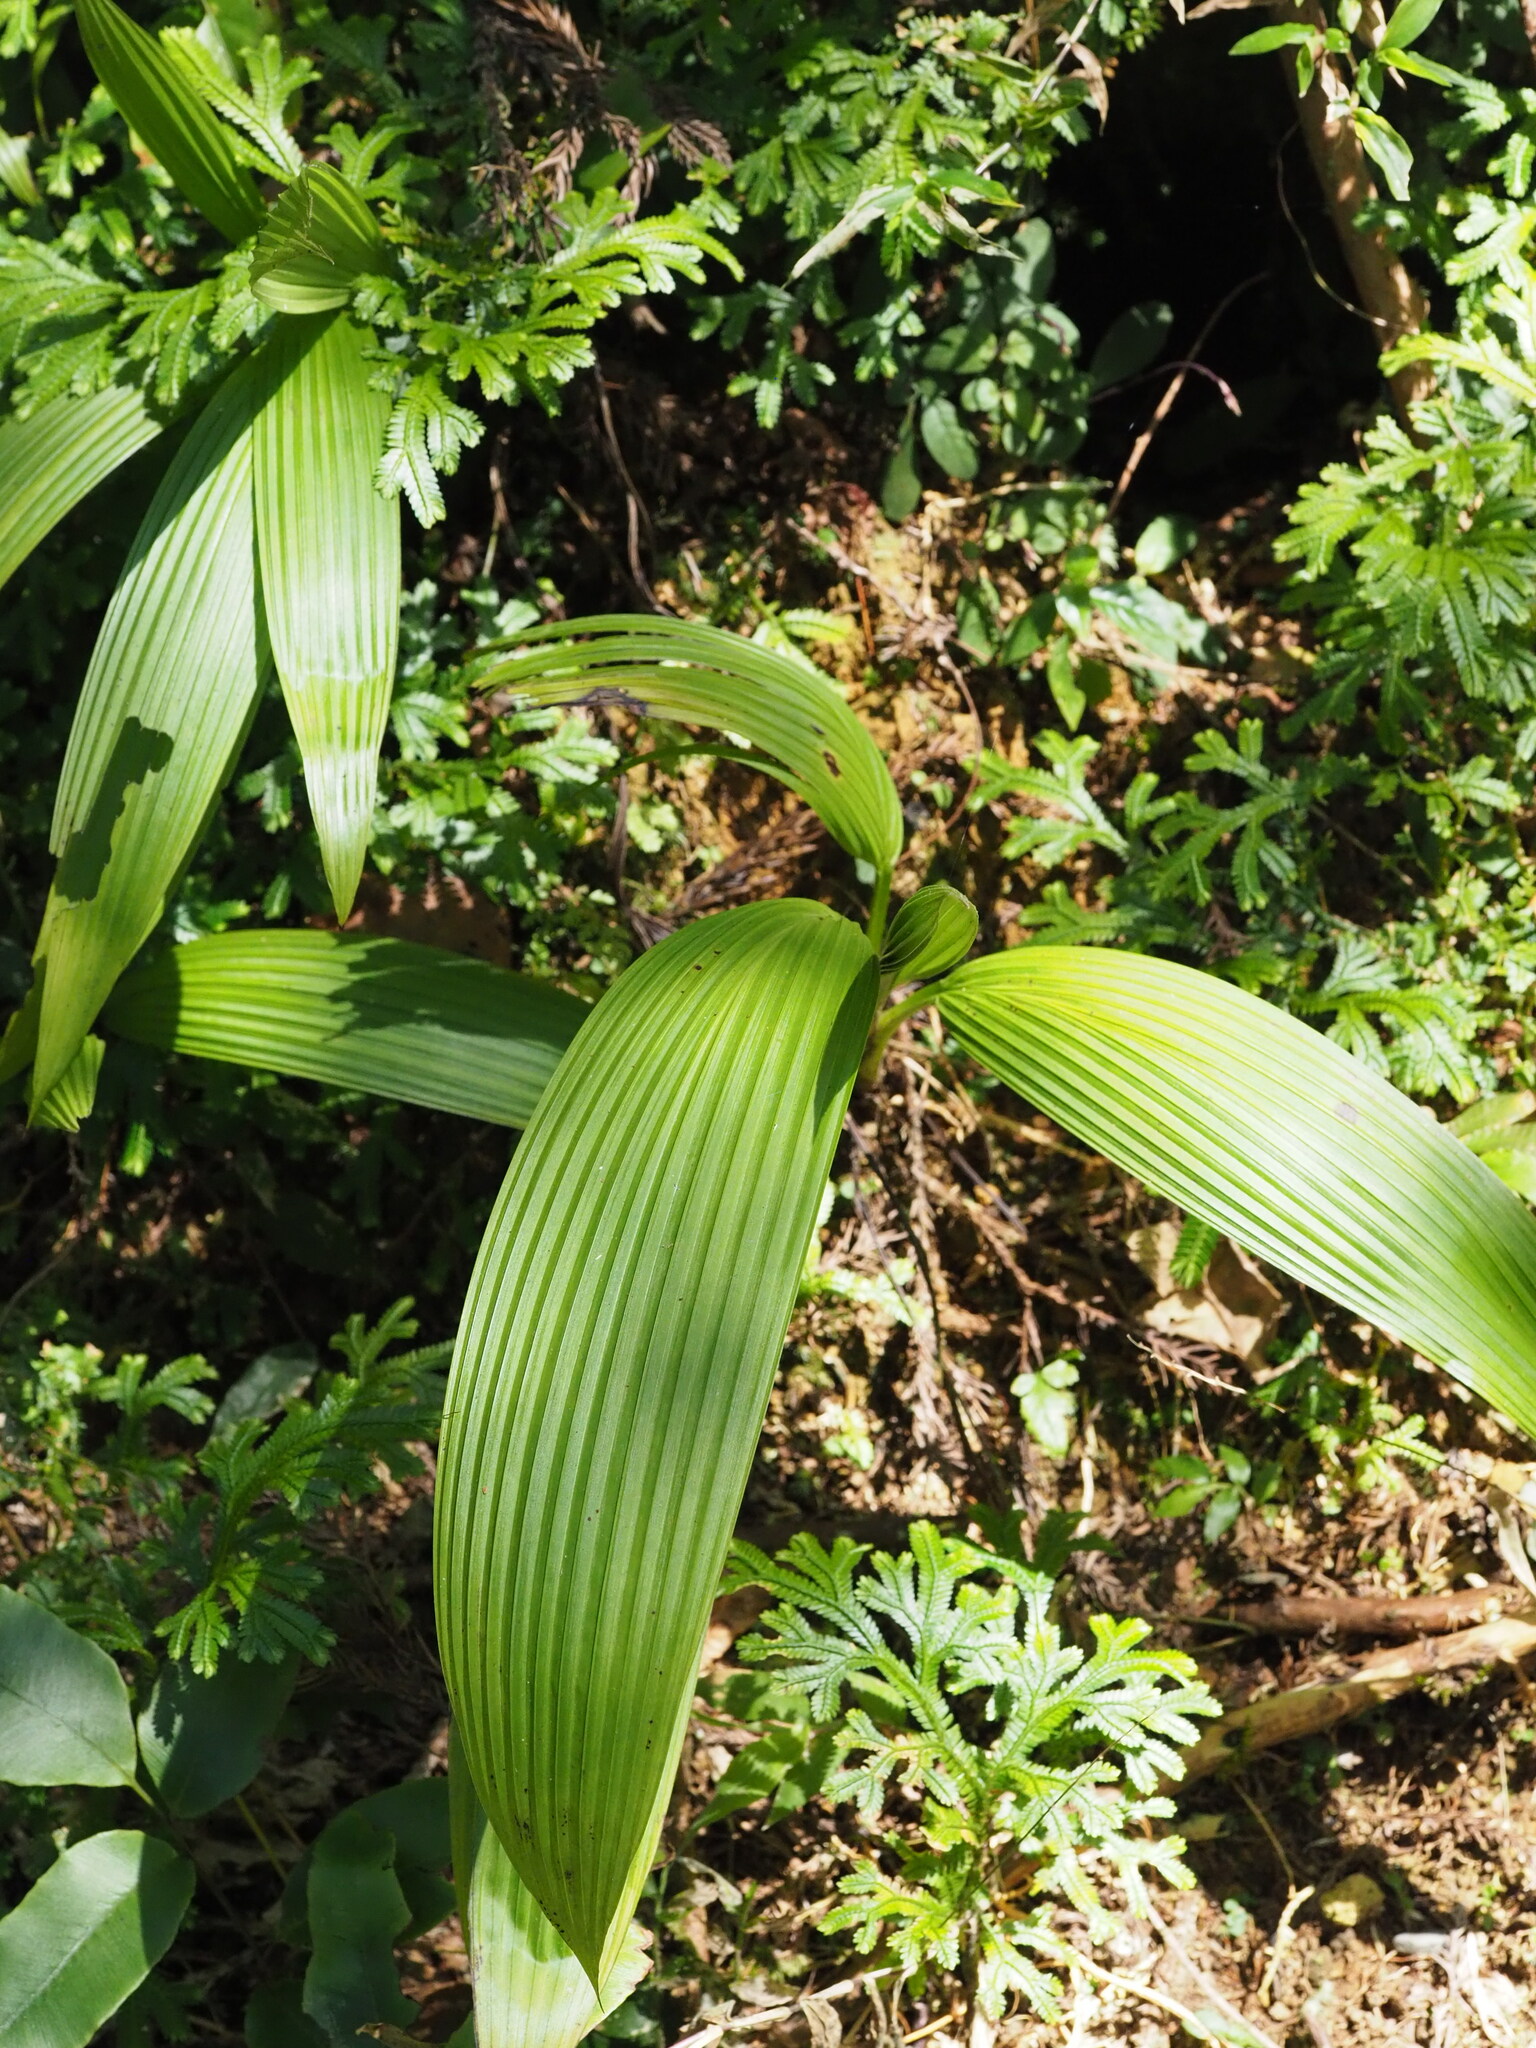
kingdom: Plantae
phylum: Tracheophyta
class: Liliopsida
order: Asparagales
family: Hypoxidaceae
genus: Curculigo
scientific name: Curculigo capitulata
